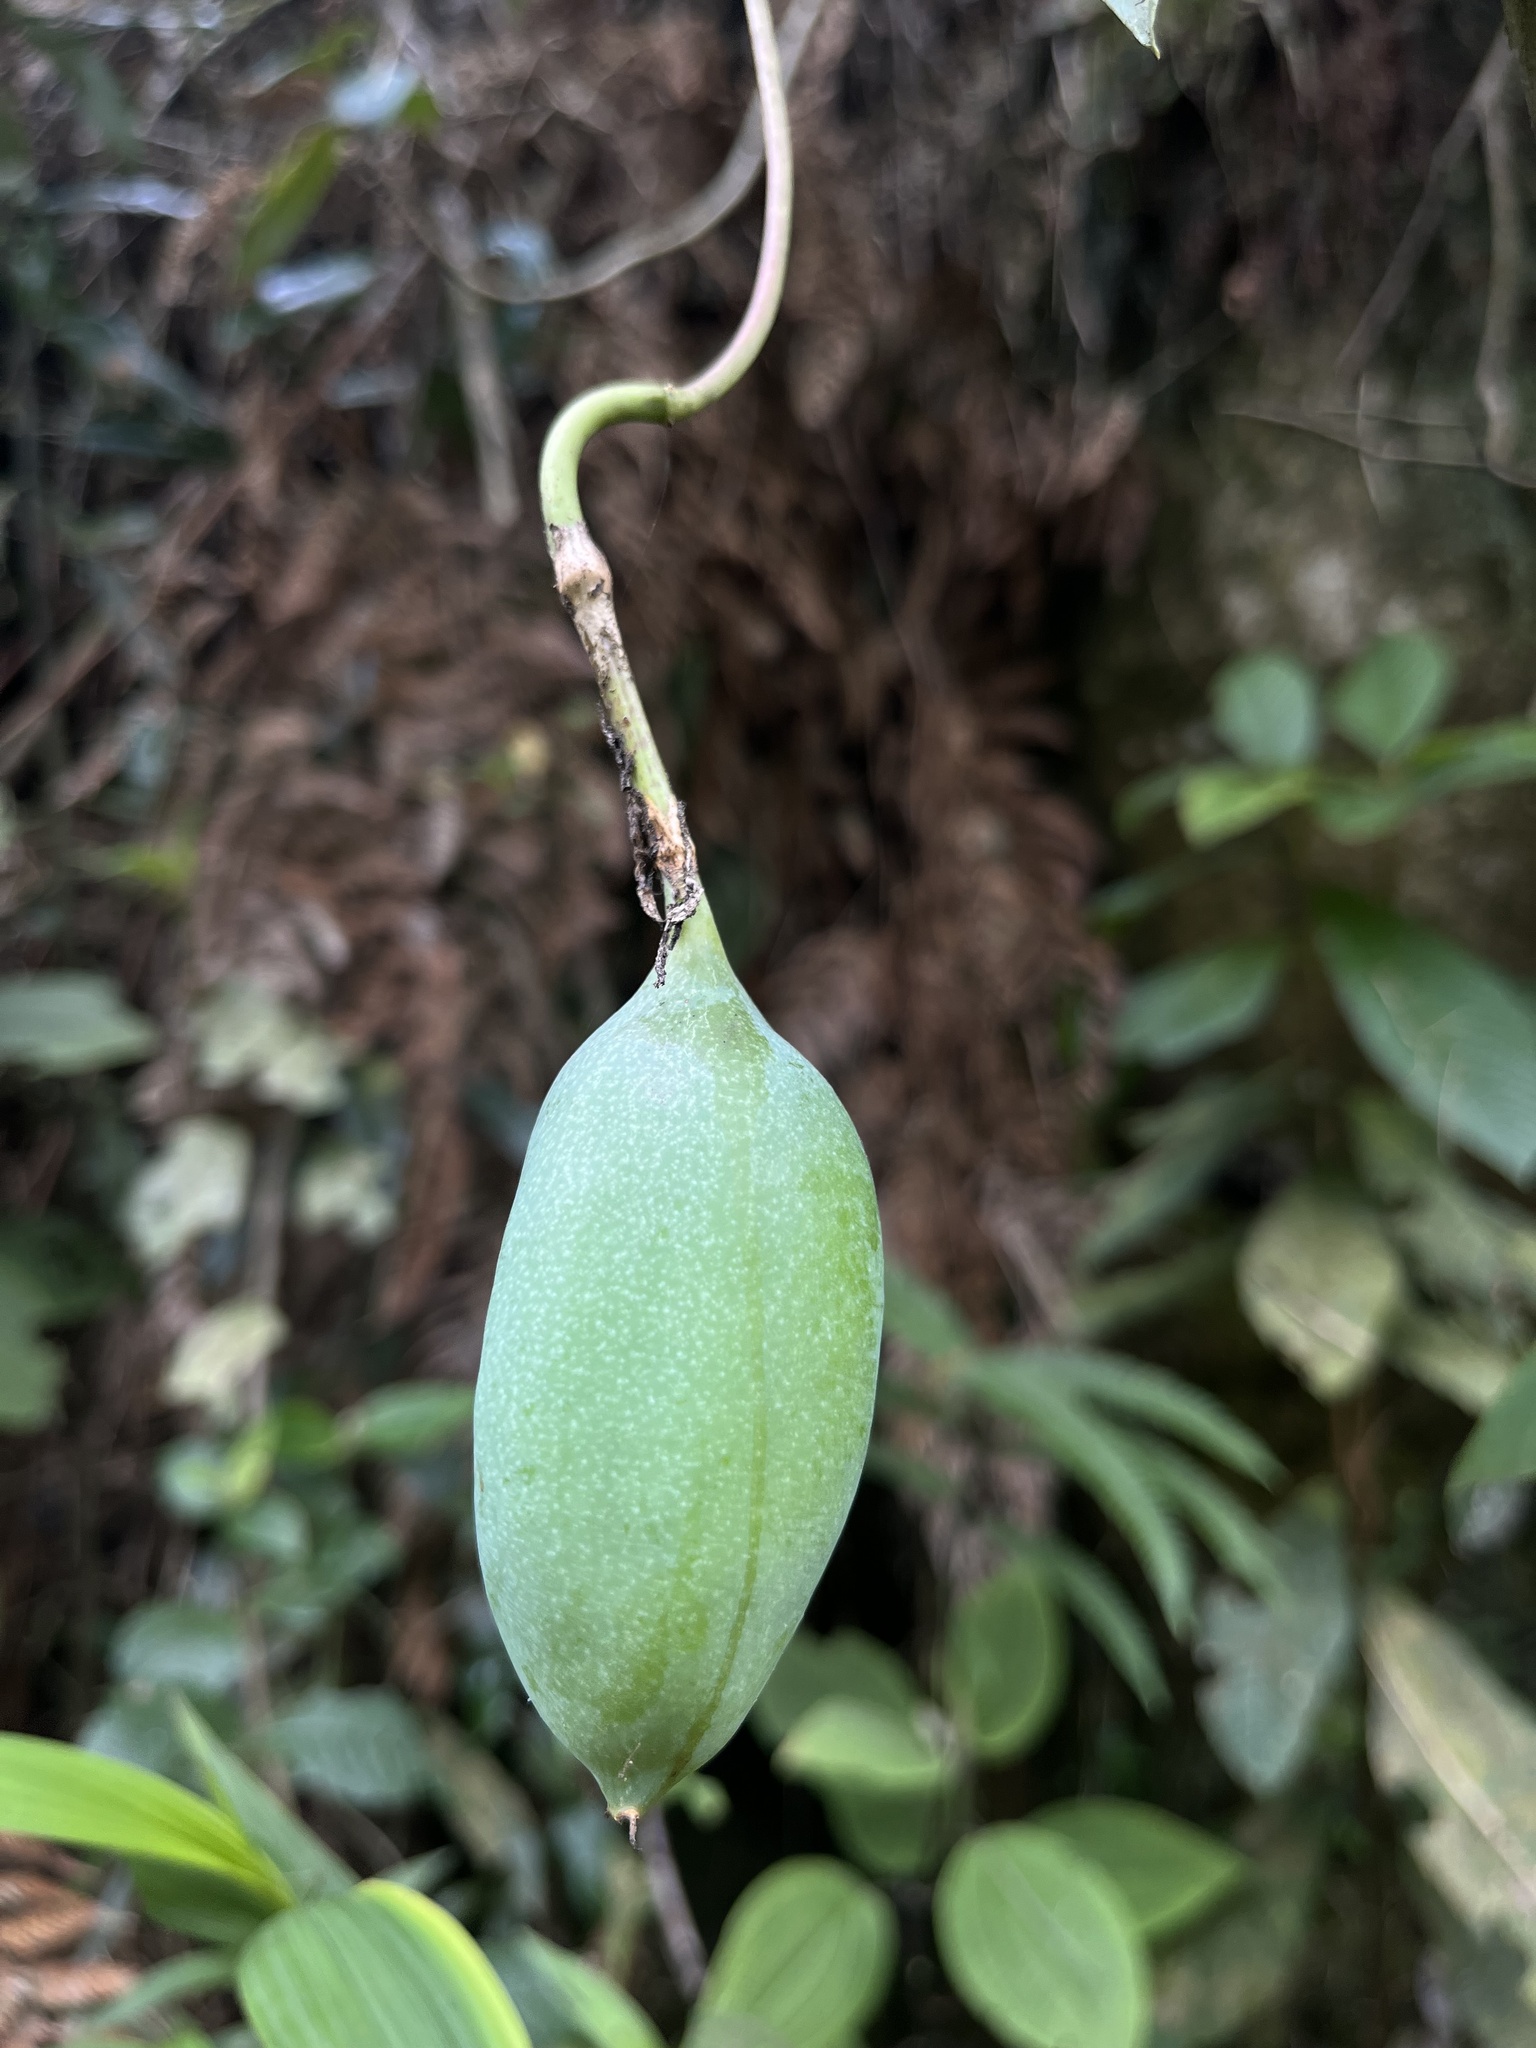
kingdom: Plantae
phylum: Tracheophyta
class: Magnoliopsida
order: Malpighiales
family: Passifloraceae
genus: Passiflora
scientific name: Passiflora longipes
